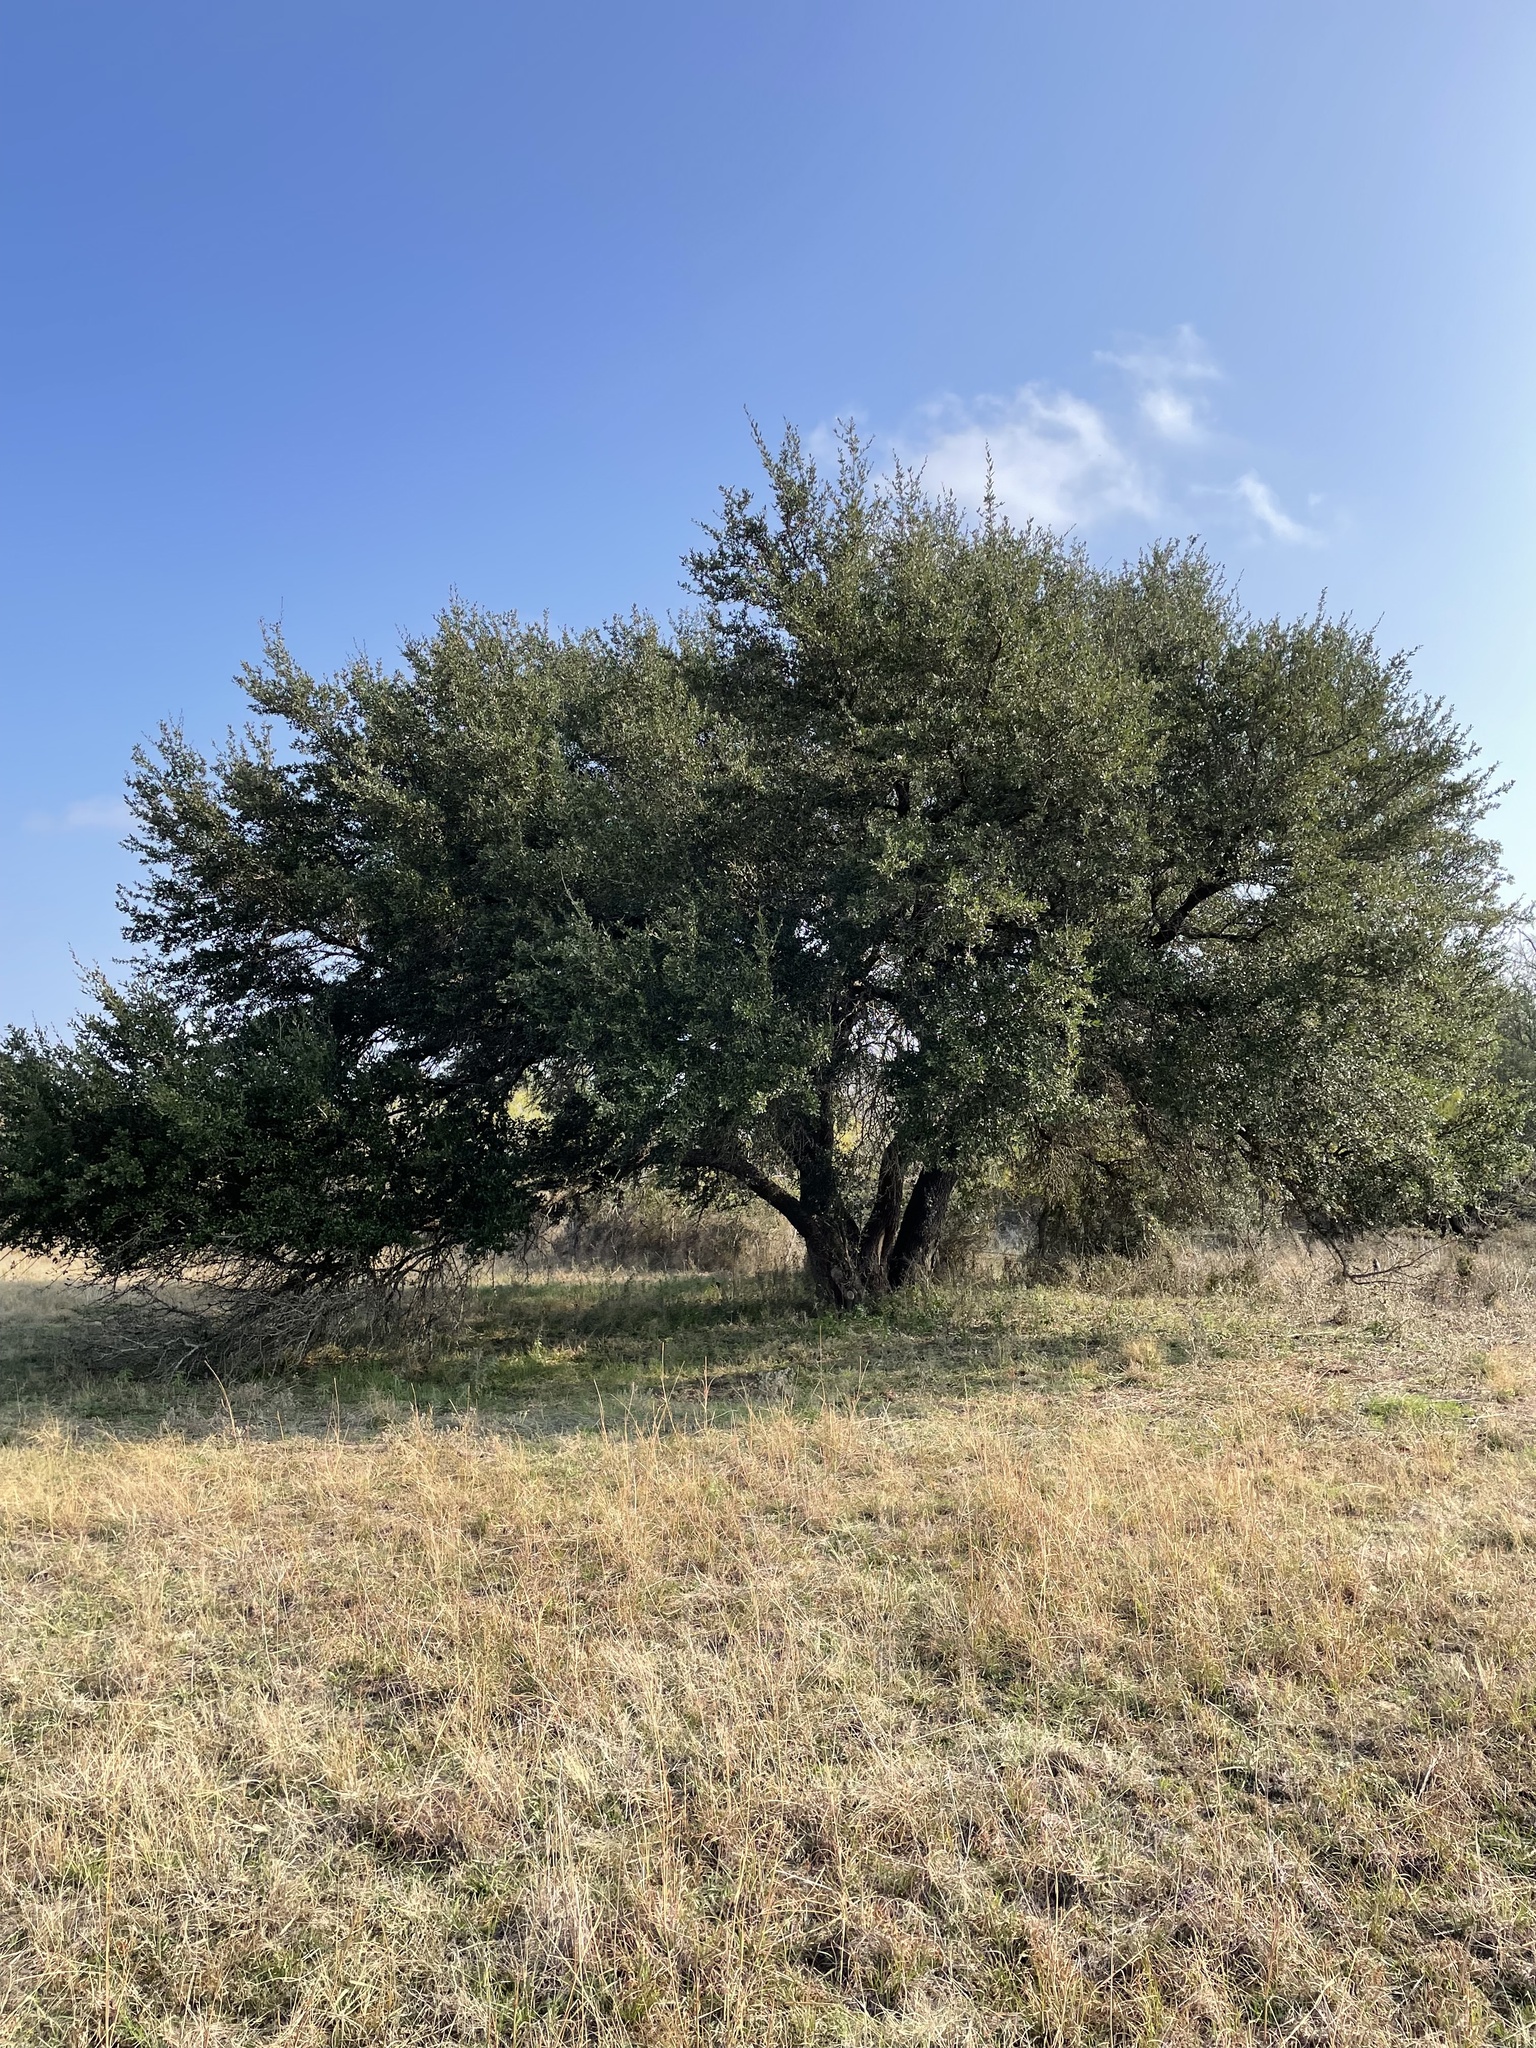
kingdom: Plantae
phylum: Tracheophyta
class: Magnoliopsida
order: Fagales
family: Fagaceae
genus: Quercus
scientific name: Quercus fusiformis
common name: Texas live oak
